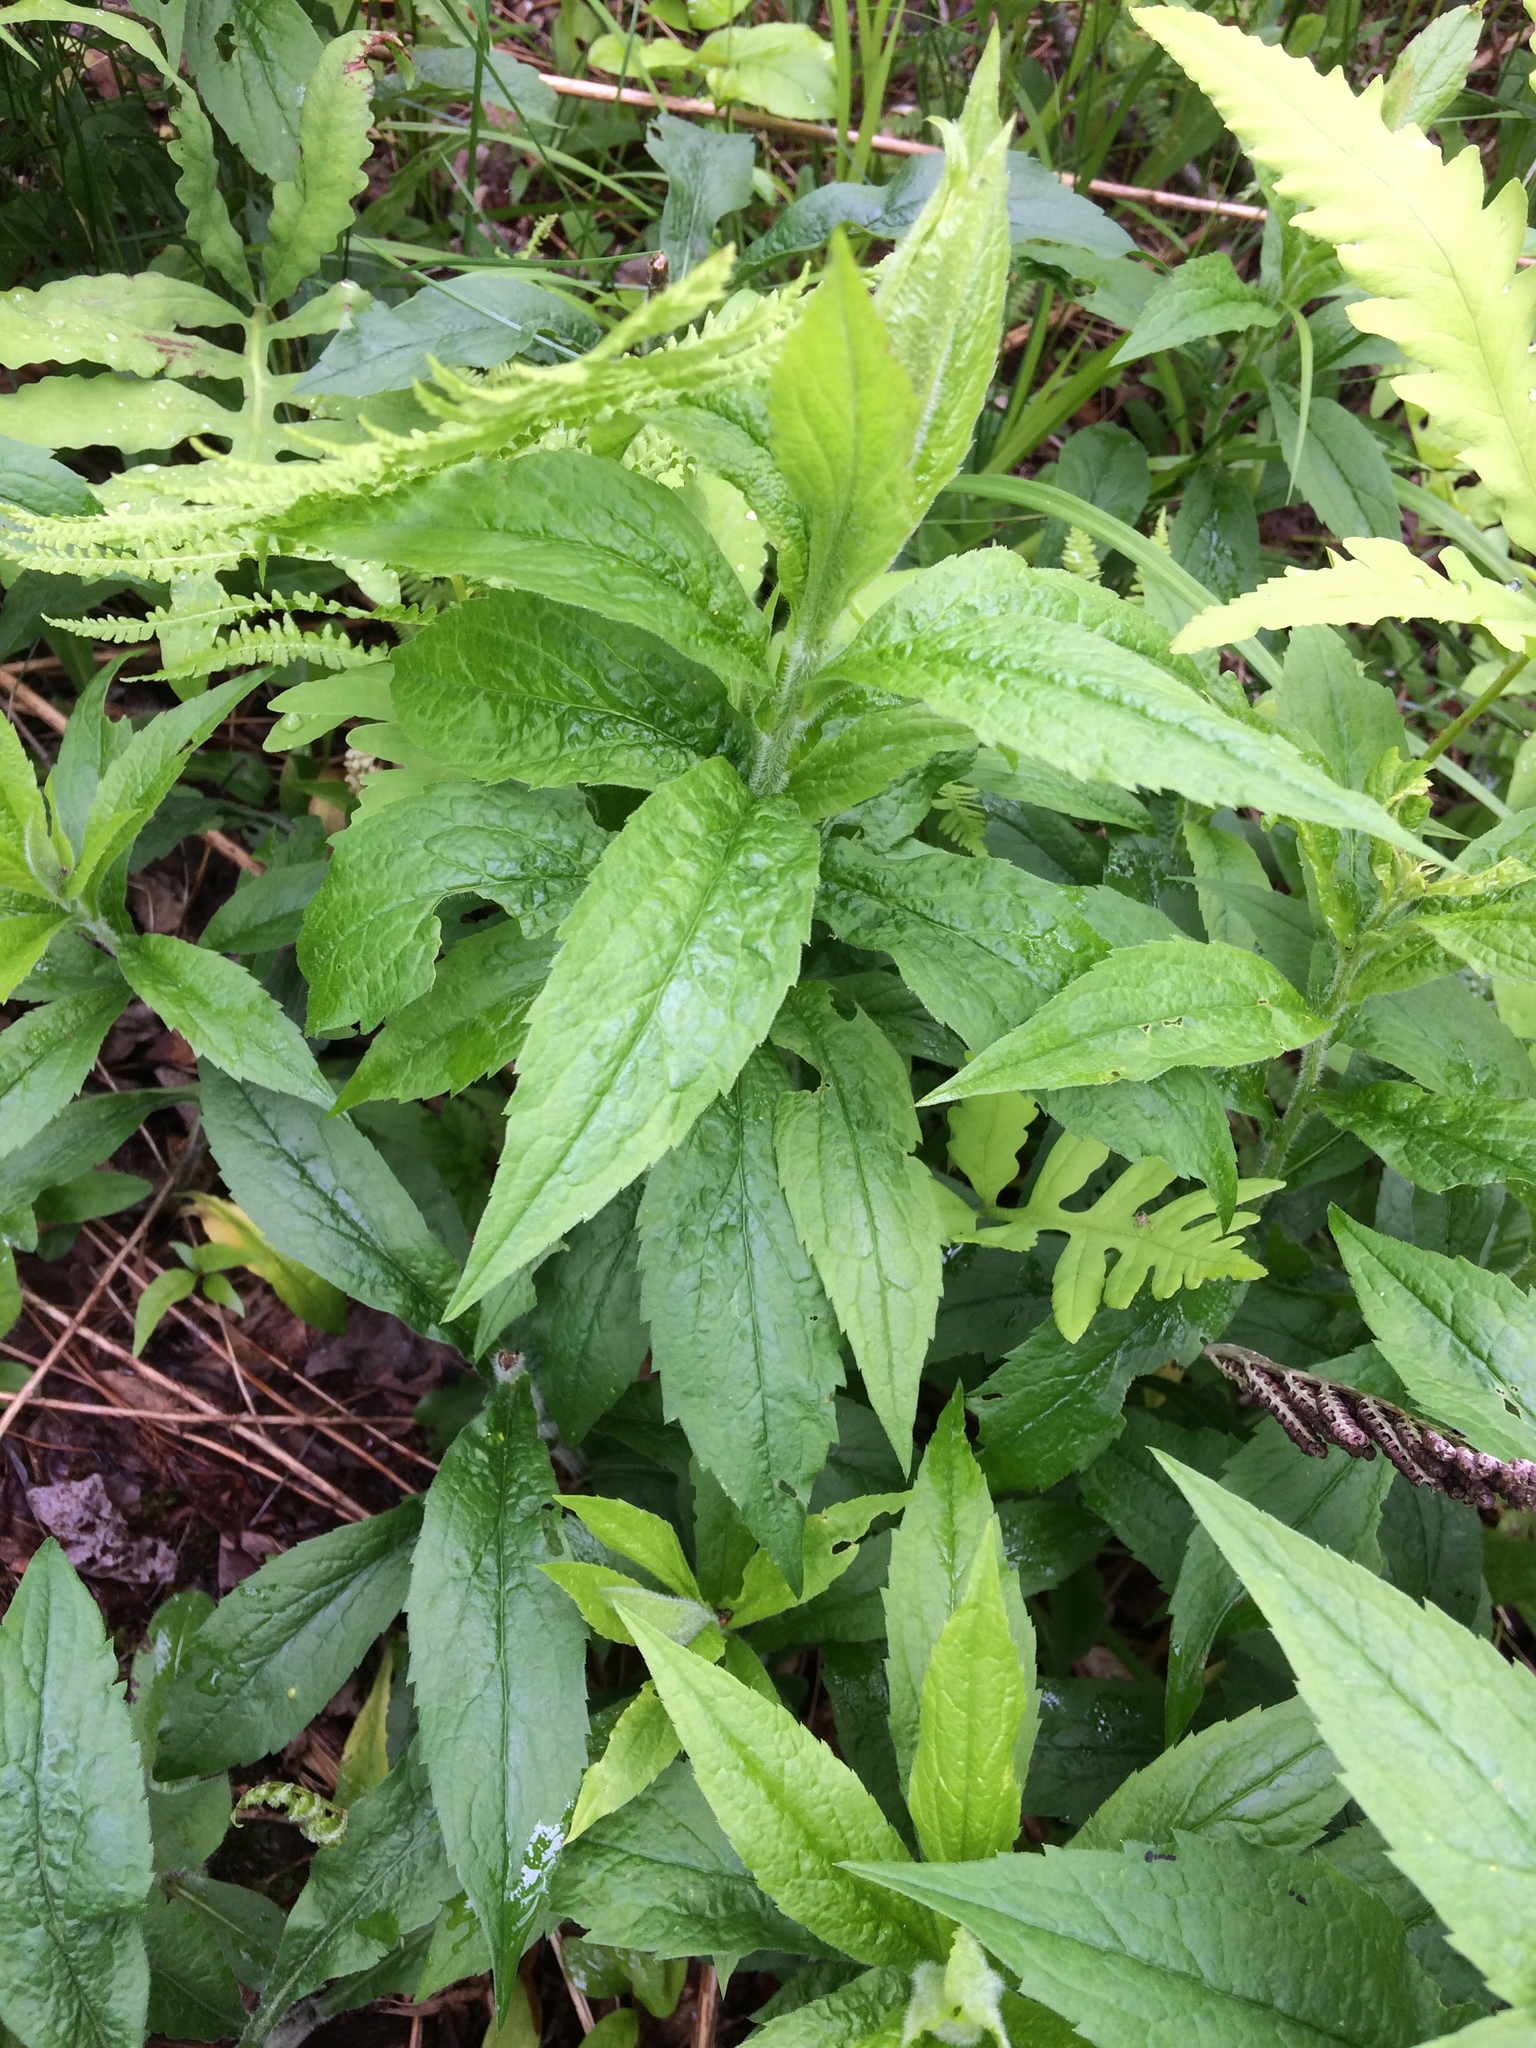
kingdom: Plantae
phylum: Tracheophyta
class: Magnoliopsida
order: Asterales
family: Asteraceae
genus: Solidago
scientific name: Solidago rugosa
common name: Rough-stemmed goldenrod
